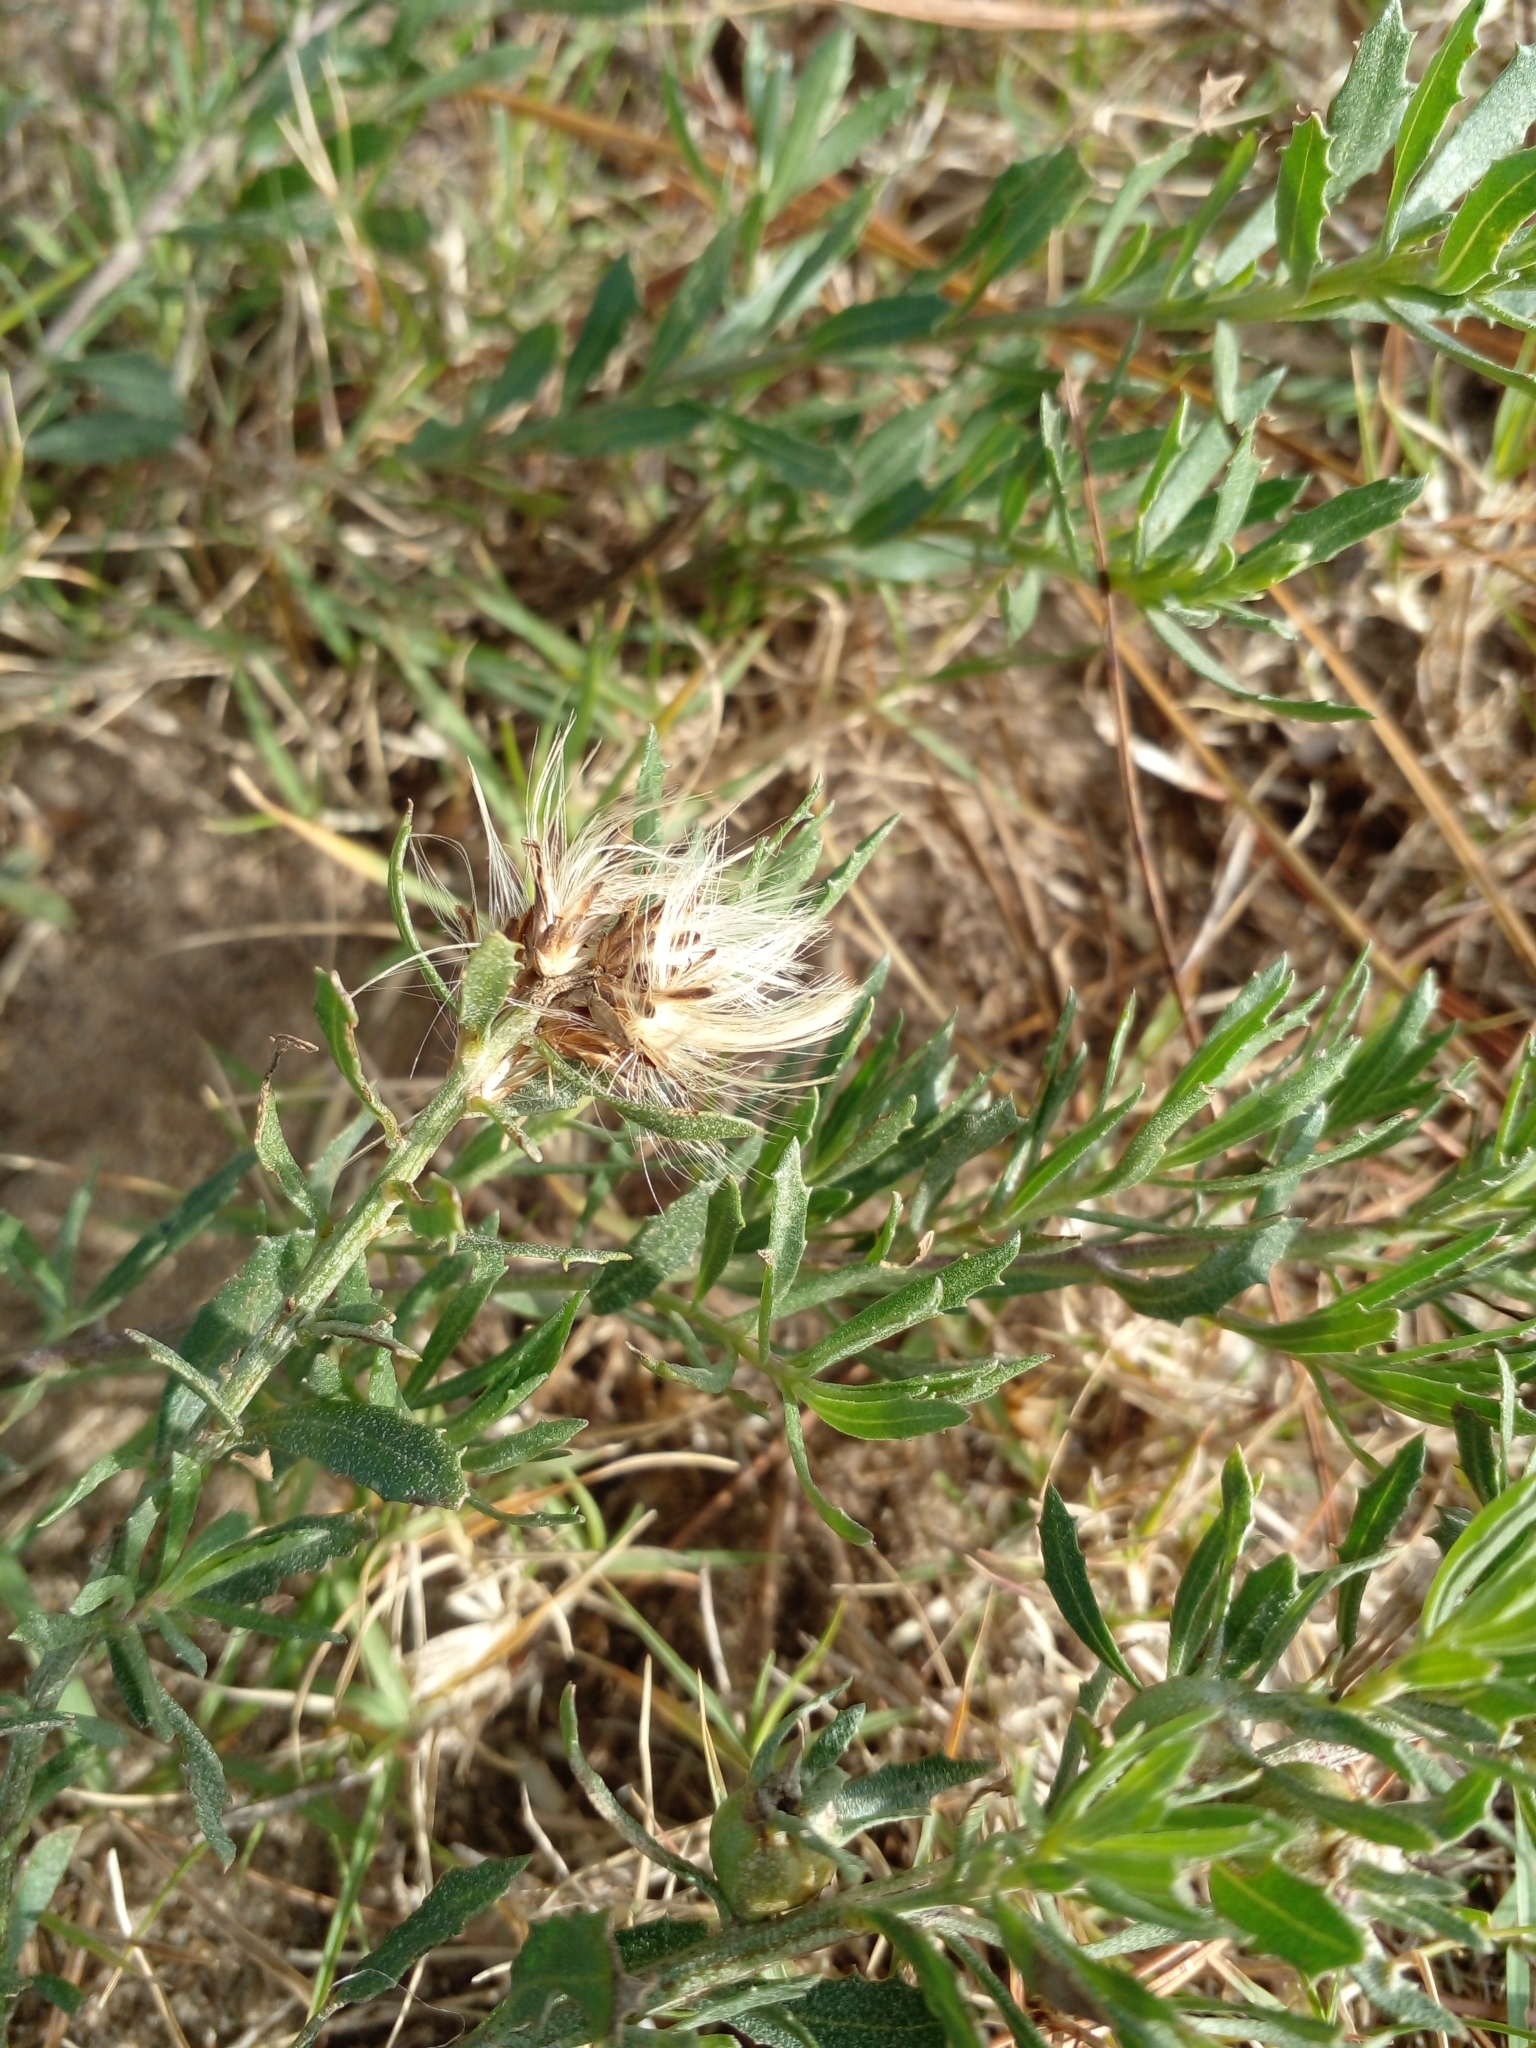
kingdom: Plantae
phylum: Tracheophyta
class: Magnoliopsida
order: Asterales
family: Asteraceae
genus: Baccharis
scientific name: Baccharis linearifolia
